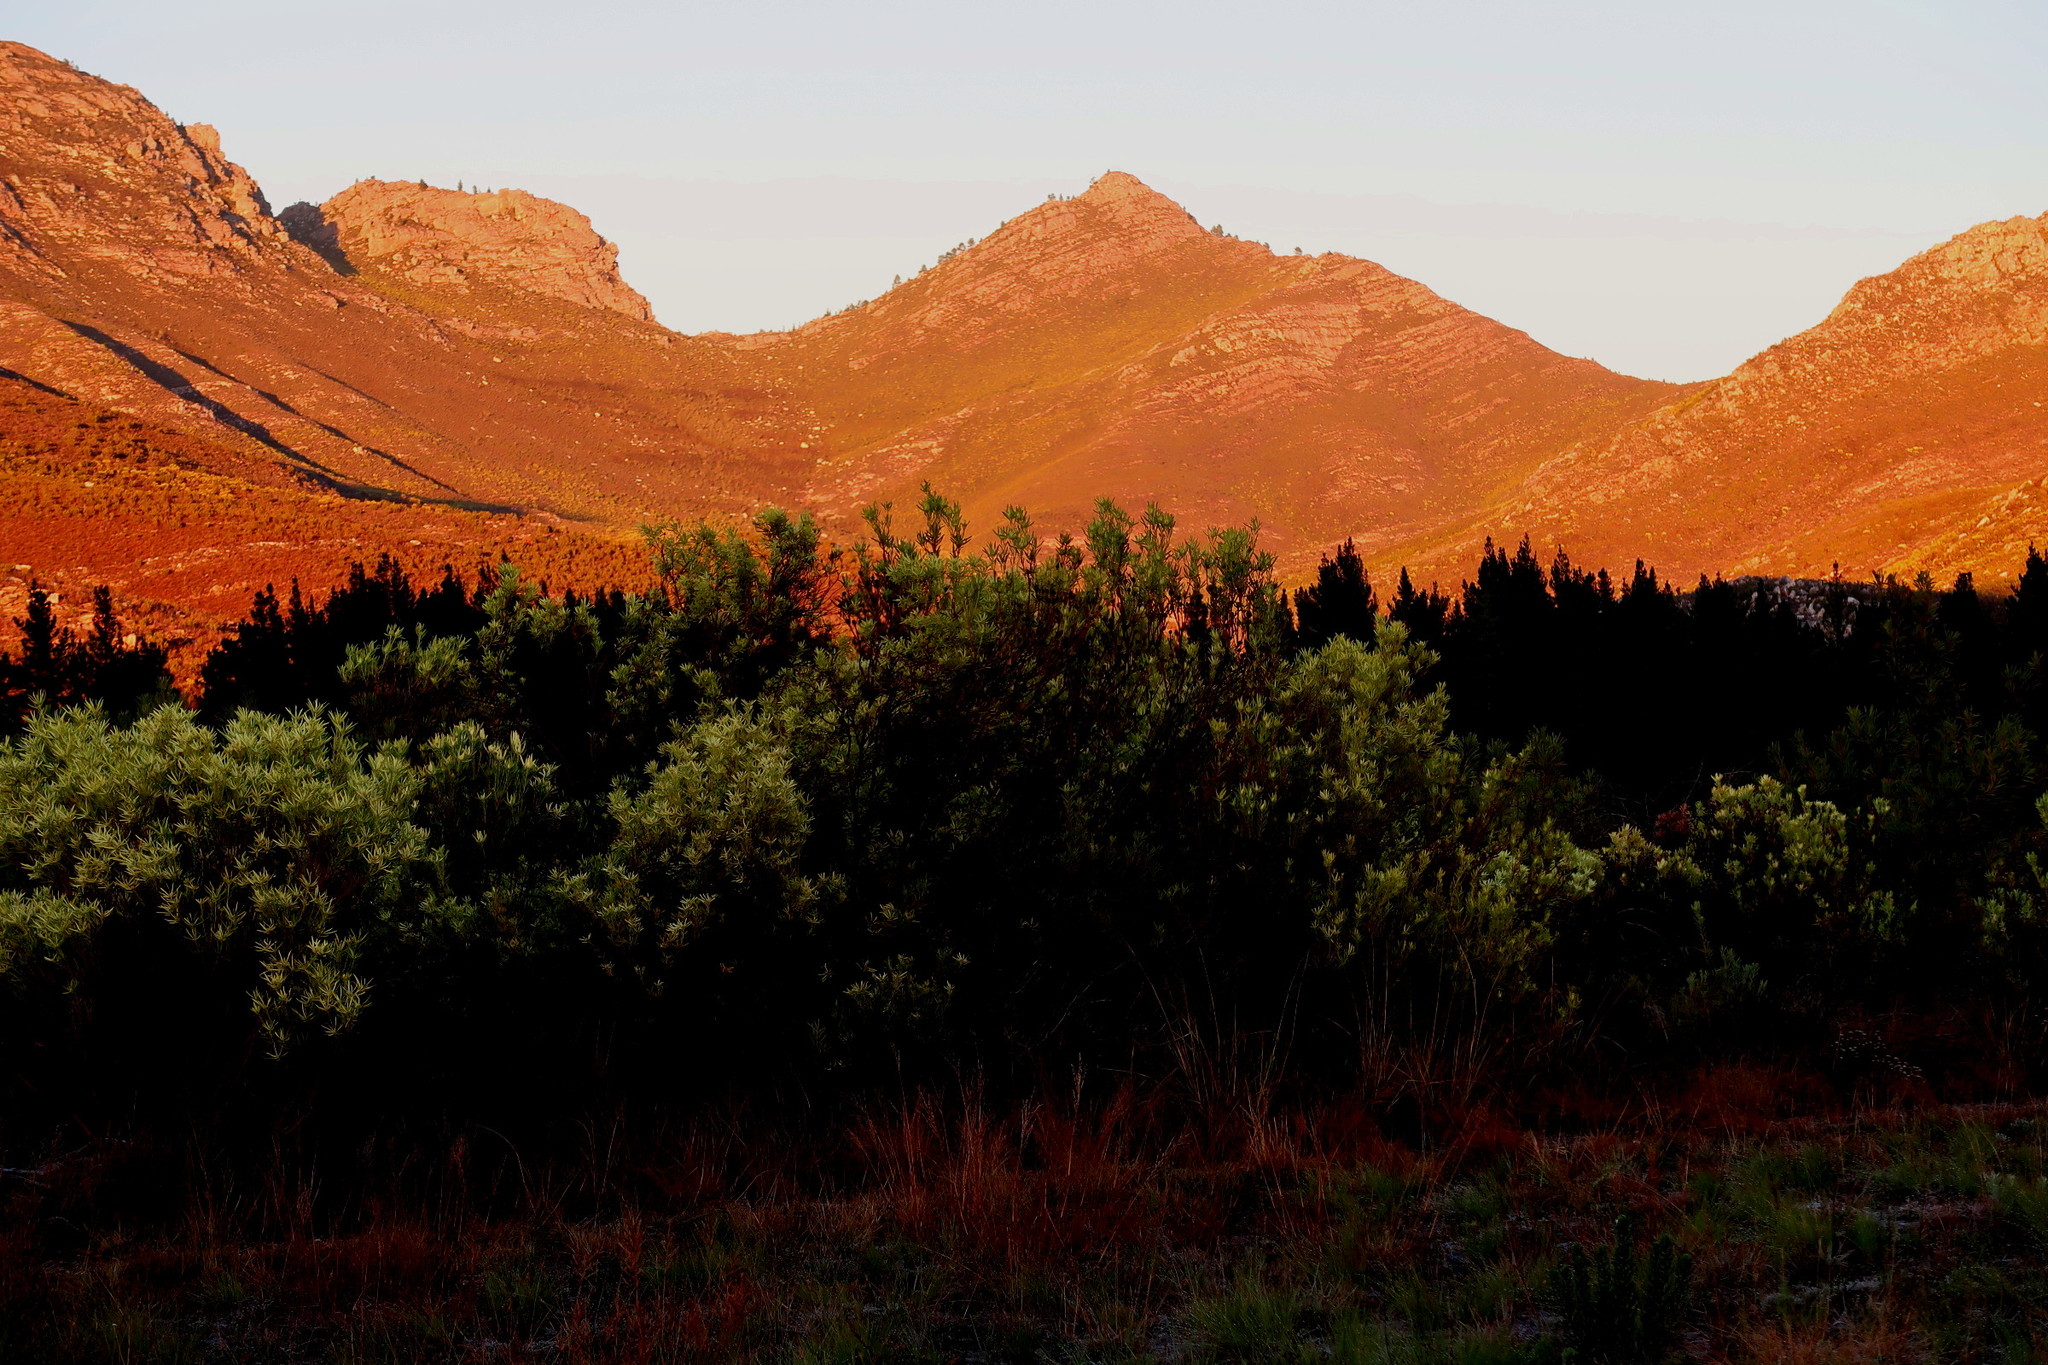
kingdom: Plantae
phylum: Tracheophyta
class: Magnoliopsida
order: Proteales
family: Proteaceae
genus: Leucadendron
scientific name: Leucadendron salignum
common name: Common sunshine conebush
